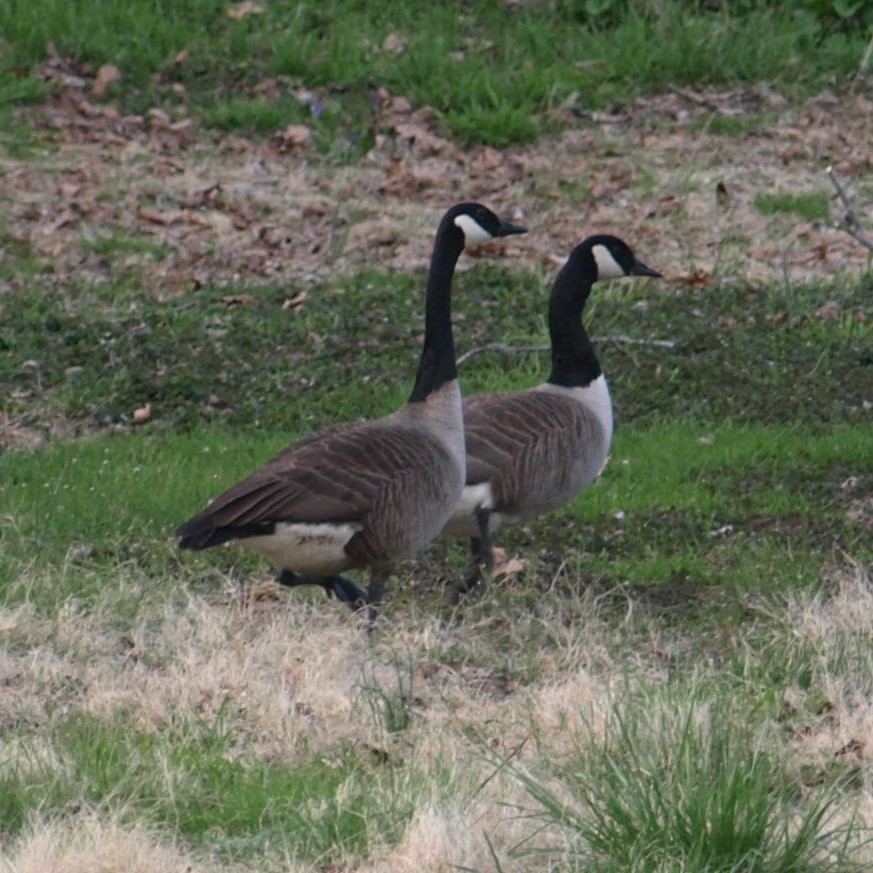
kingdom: Animalia
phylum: Chordata
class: Aves
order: Anseriformes
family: Anatidae
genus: Branta
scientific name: Branta canadensis
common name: Canada goose
